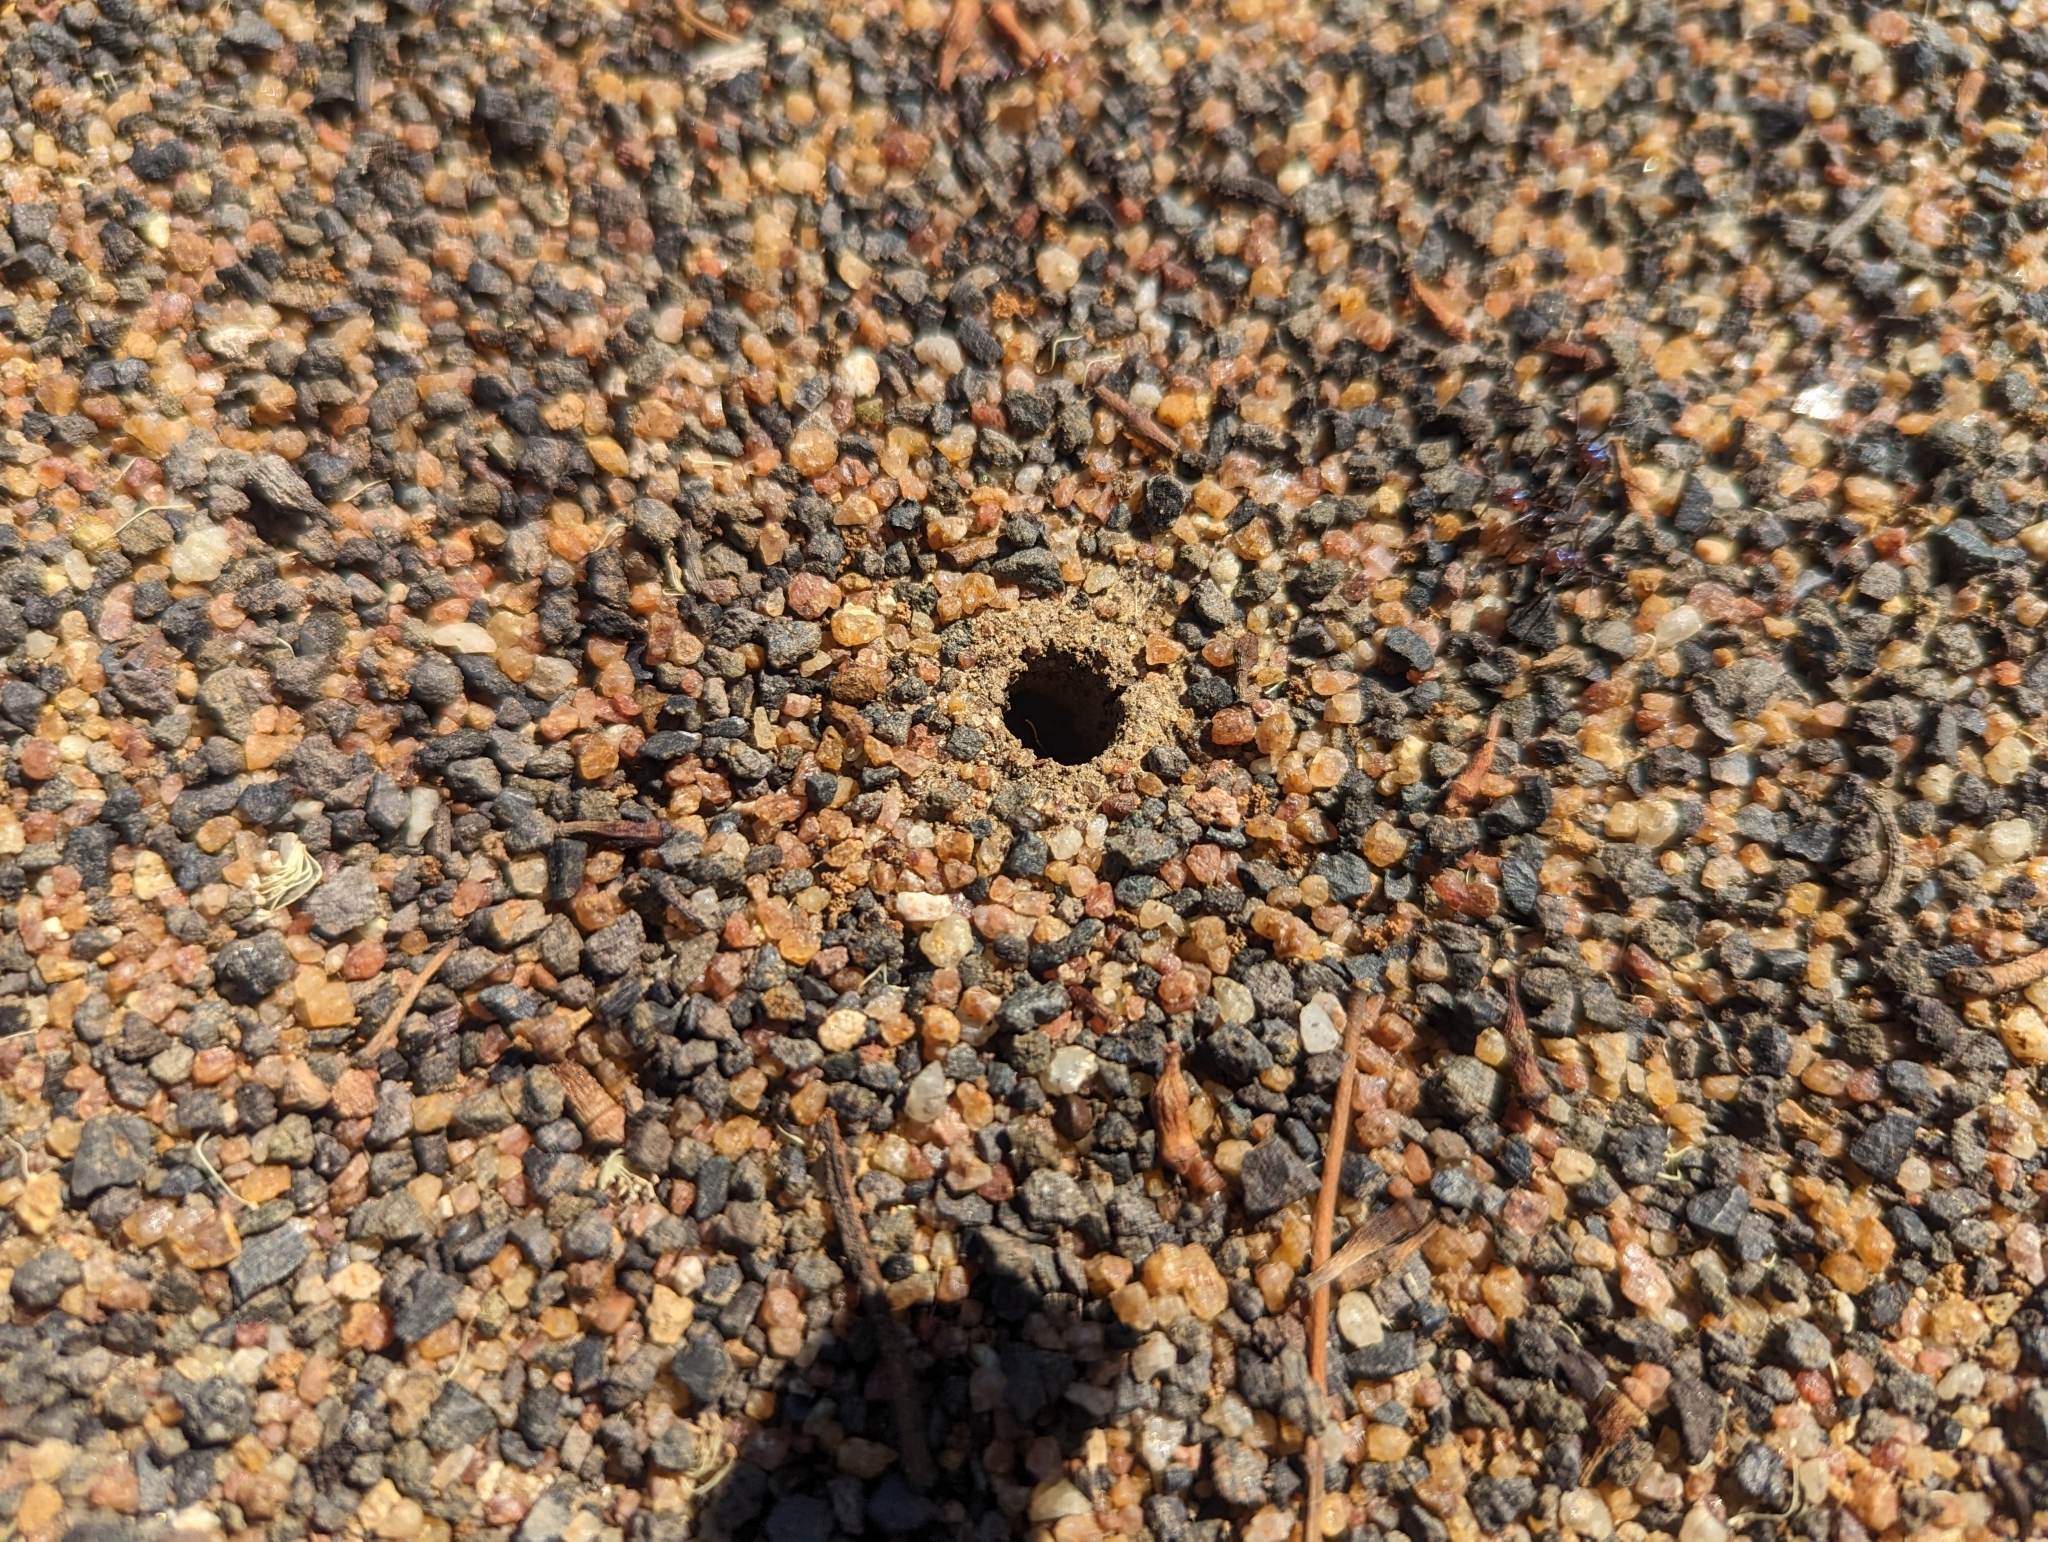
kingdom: Animalia
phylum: Arthropoda
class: Insecta
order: Hymenoptera
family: Formicidae
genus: Iridomyrmex
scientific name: Iridomyrmex purpureus
